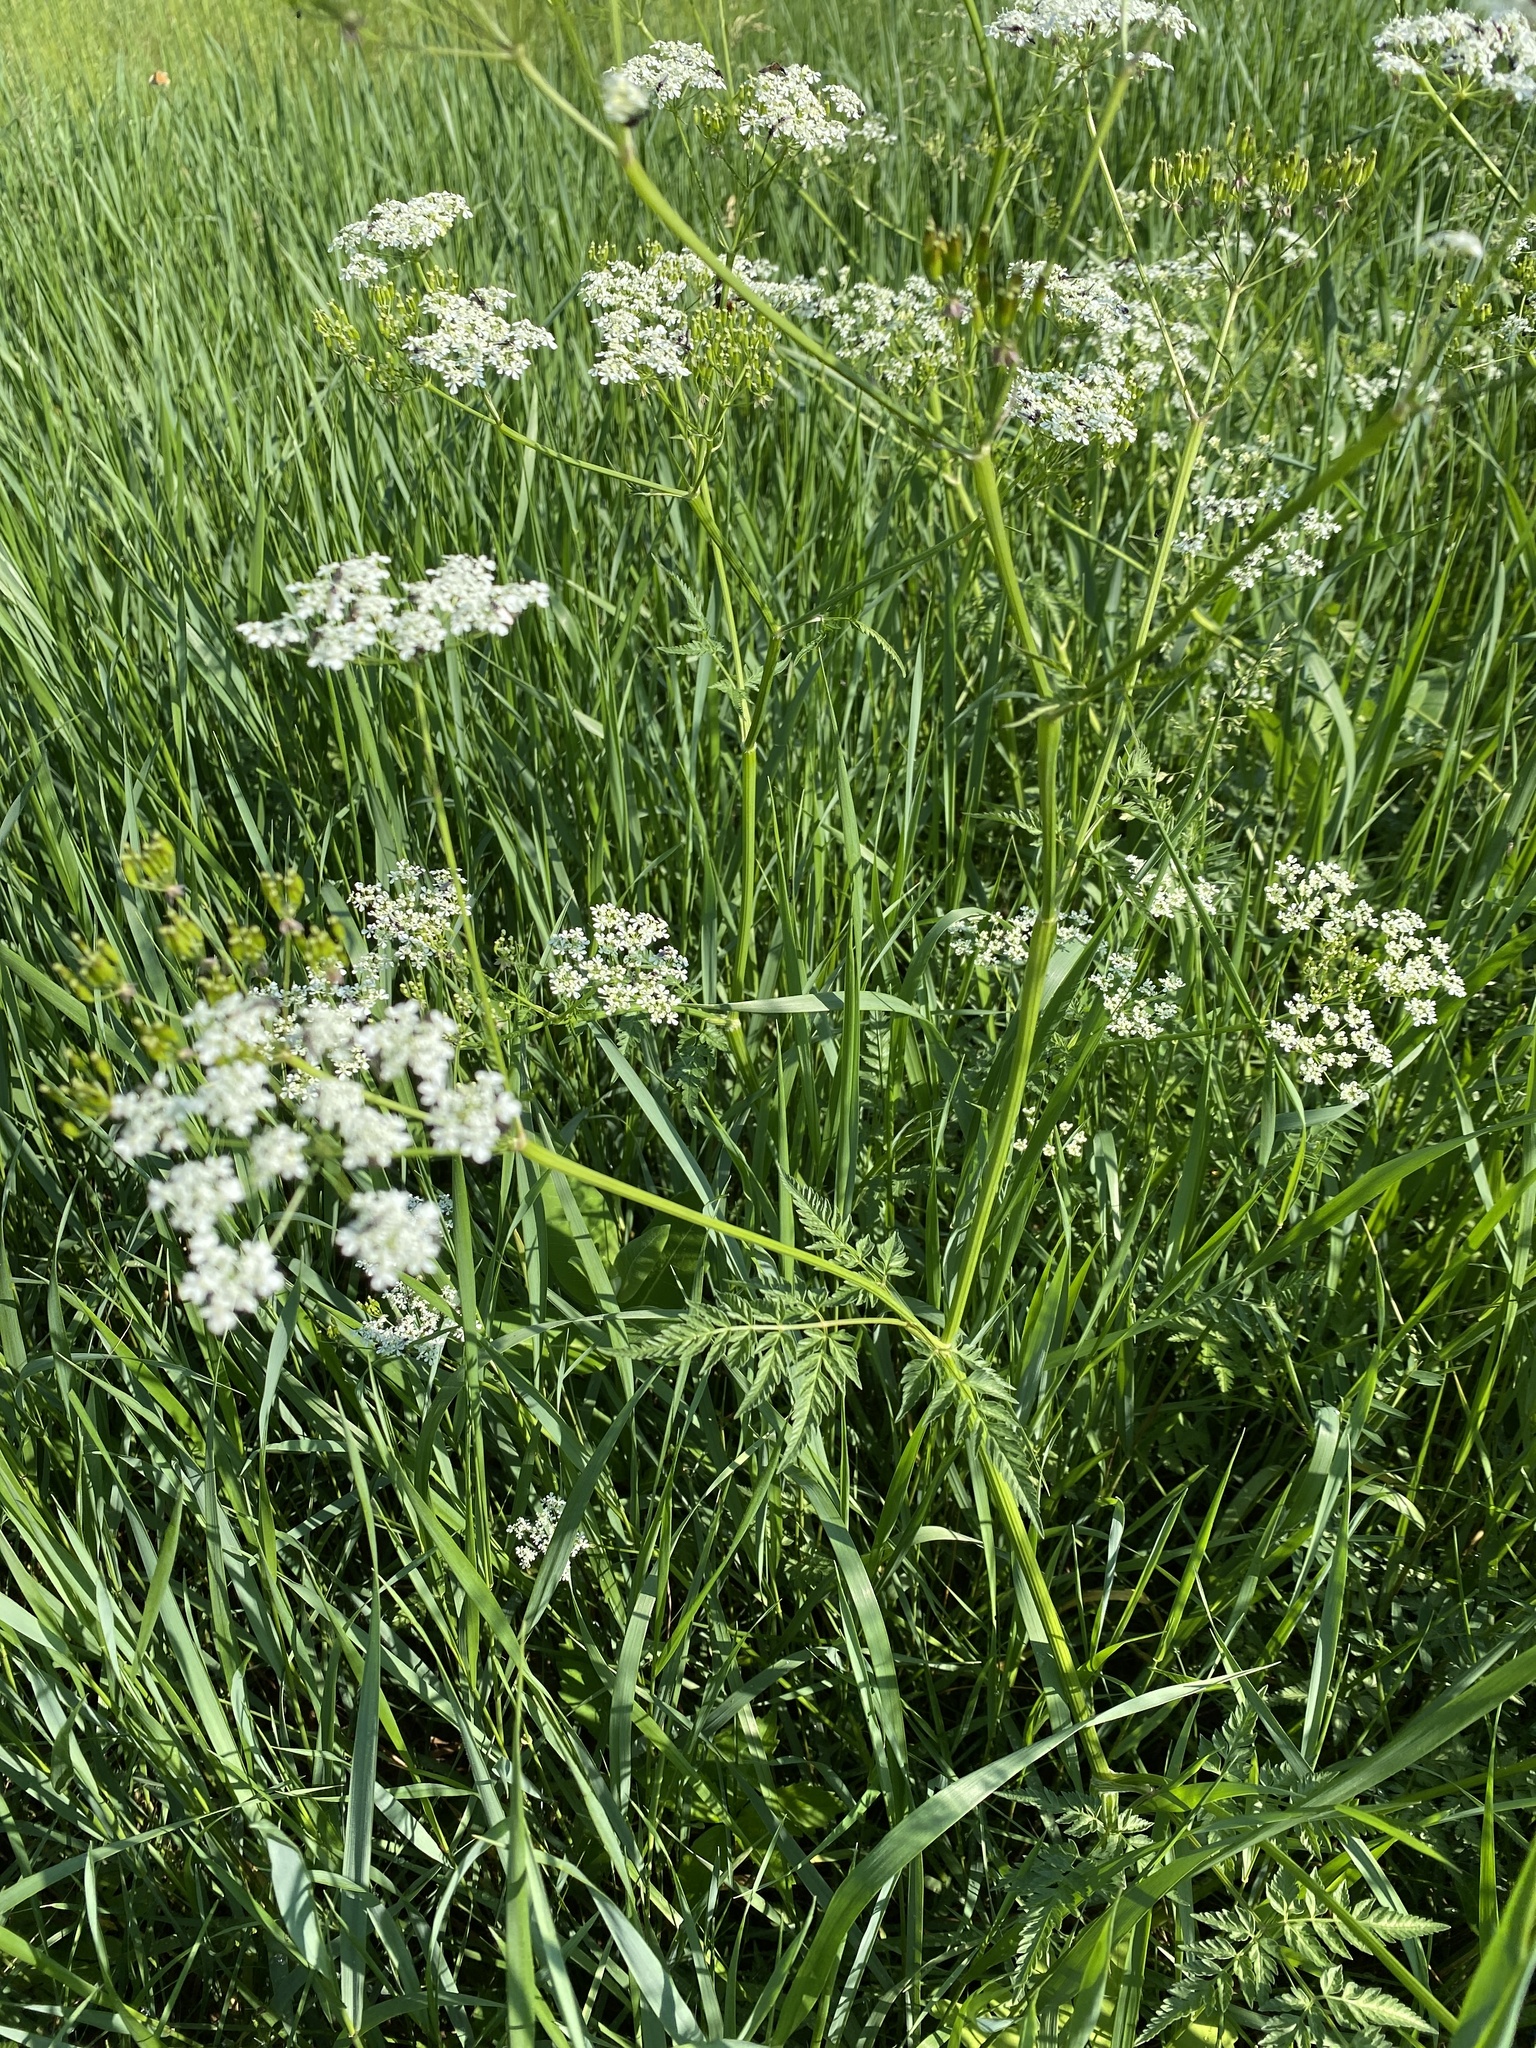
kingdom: Plantae
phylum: Tracheophyta
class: Magnoliopsida
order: Apiales
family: Apiaceae
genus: Anthriscus
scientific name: Anthriscus sylvestris
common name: Cow parsley
